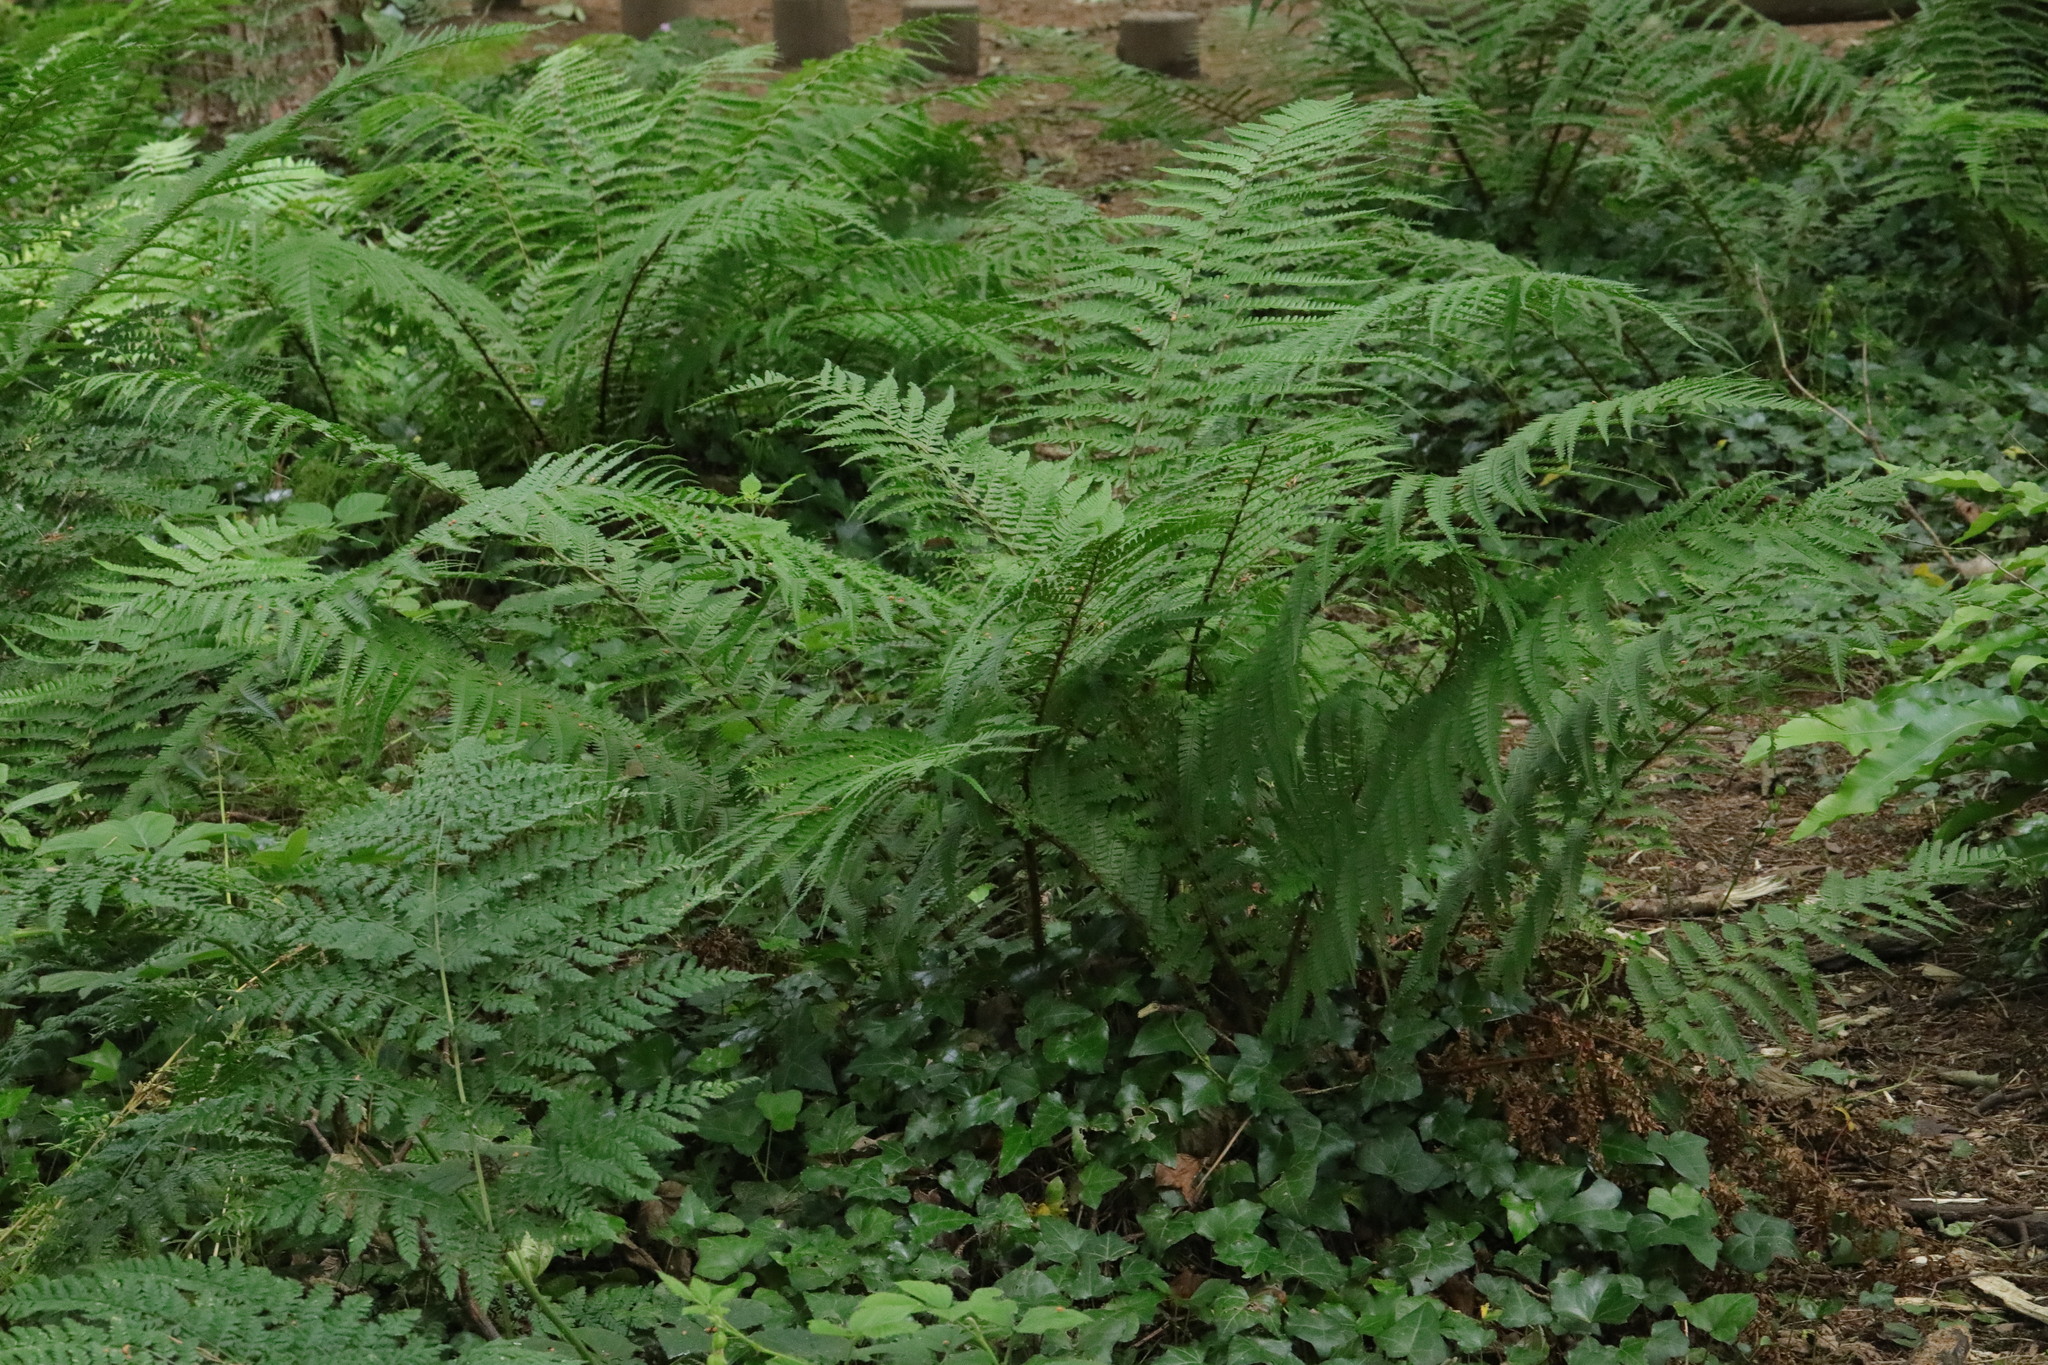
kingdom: Plantae
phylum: Tracheophyta
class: Polypodiopsida
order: Polypodiales
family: Dryopteridaceae
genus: Dryopteris
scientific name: Dryopteris dilatata
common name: Broad buckler-fern
